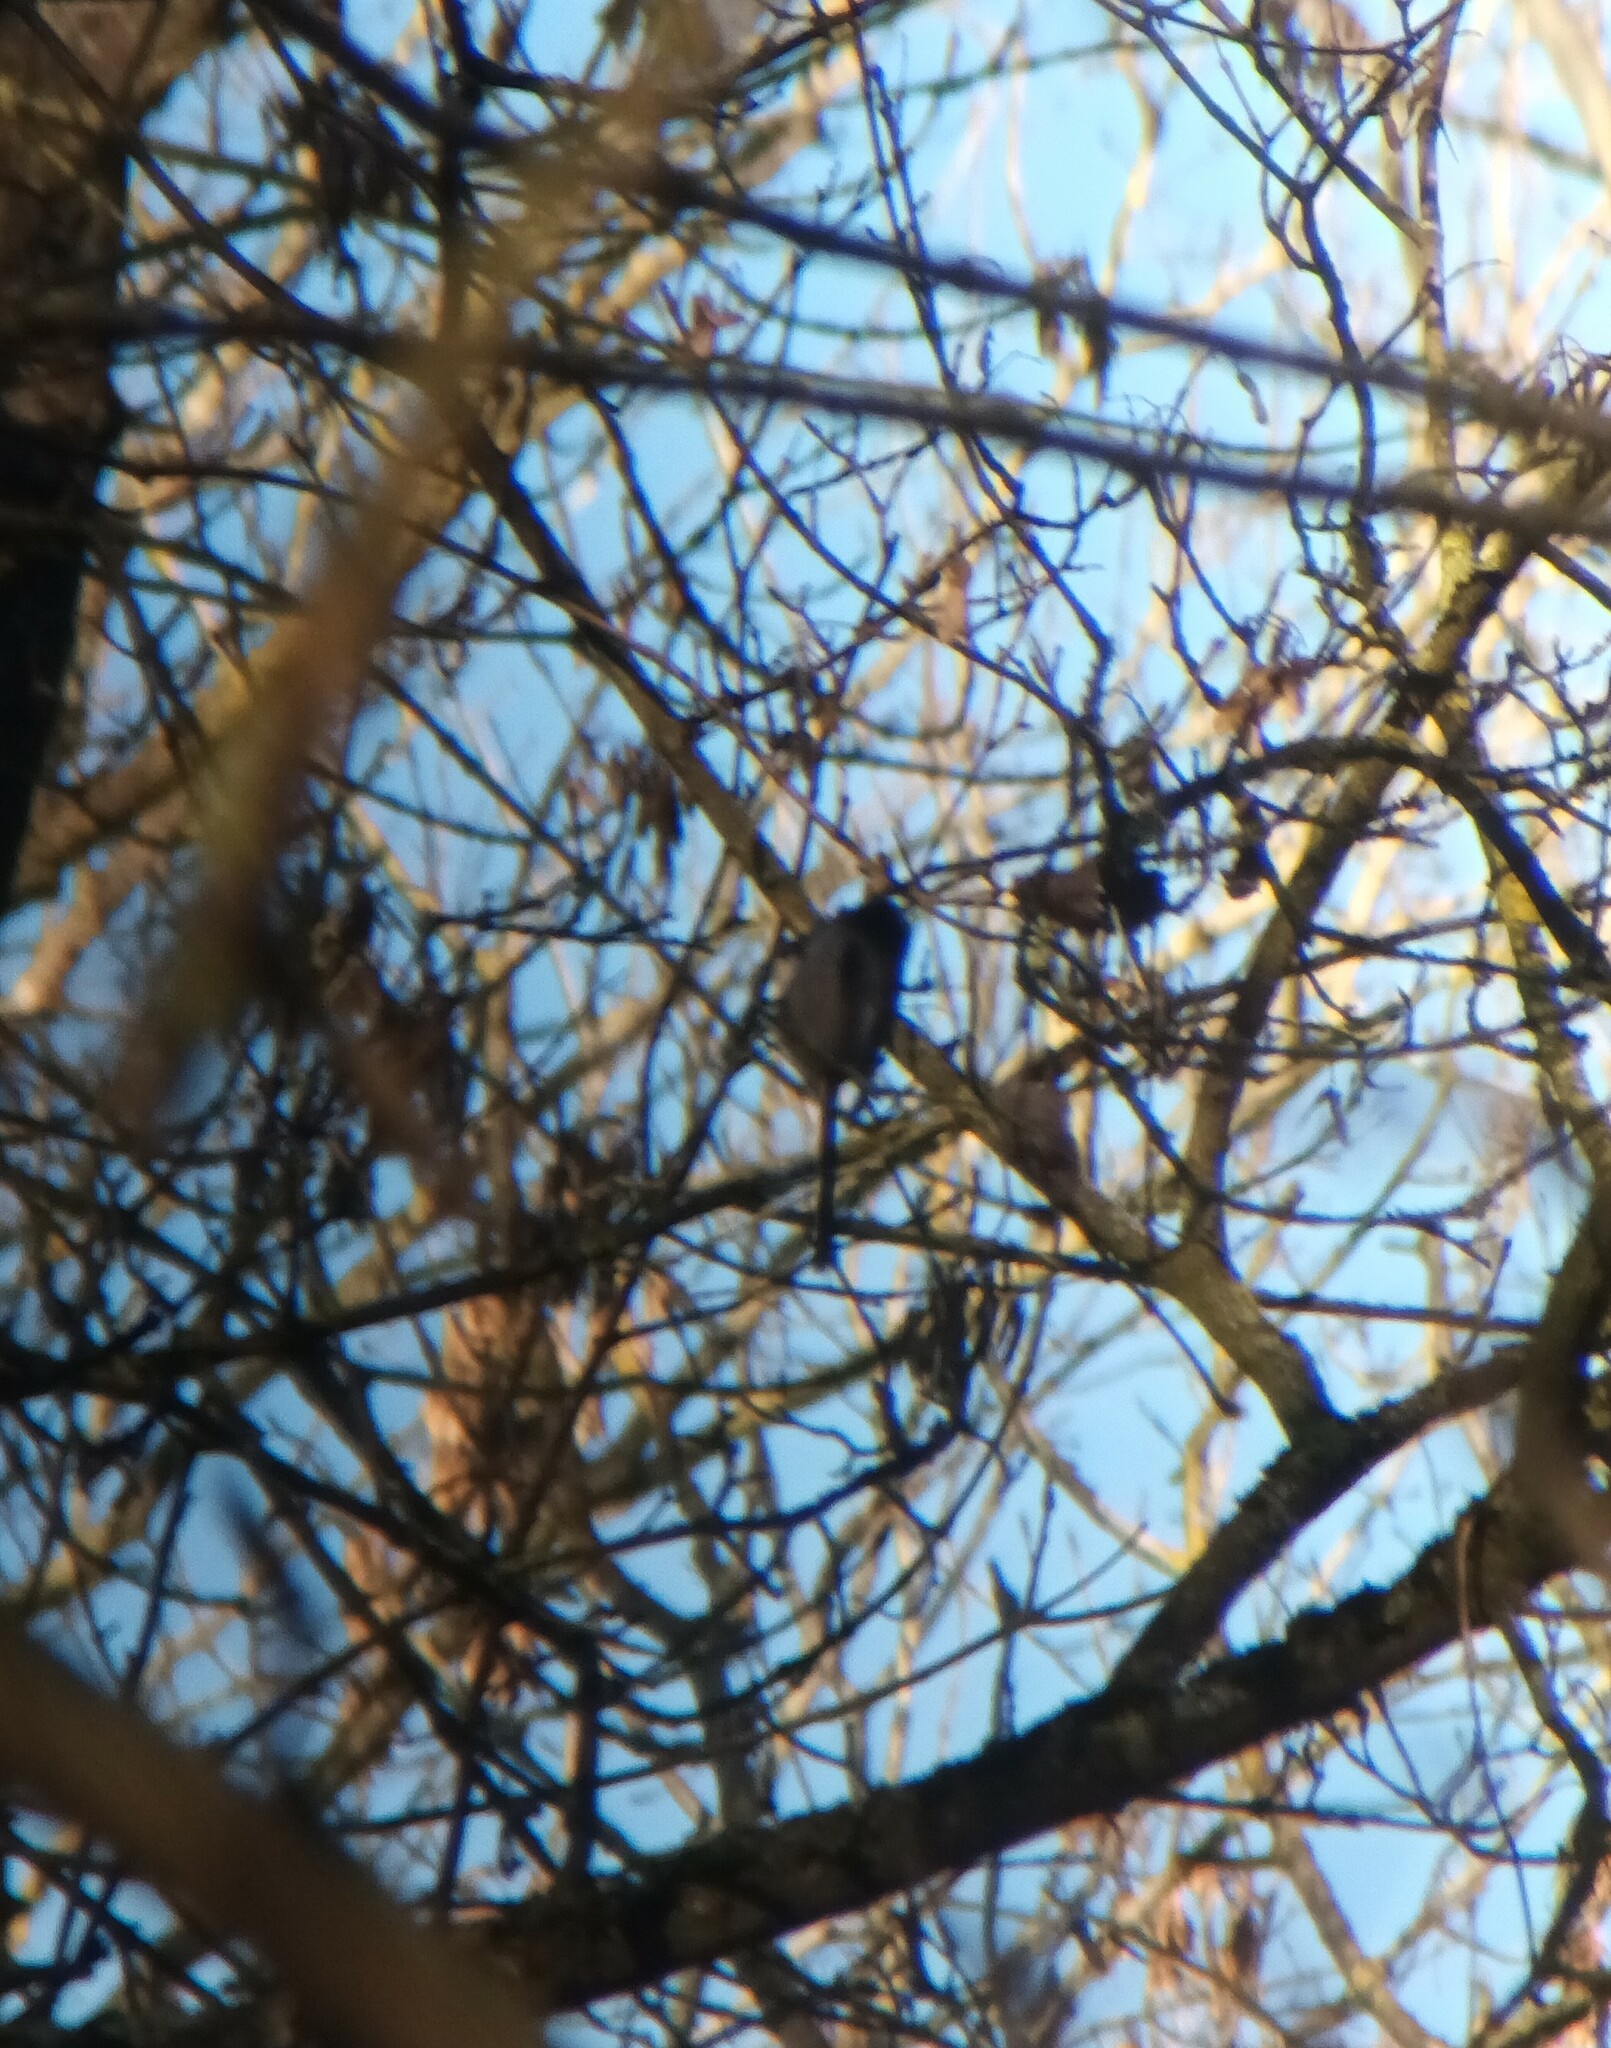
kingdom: Animalia
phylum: Chordata
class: Aves
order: Passeriformes
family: Aegithalidae
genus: Aegithalos
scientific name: Aegithalos caudatus
